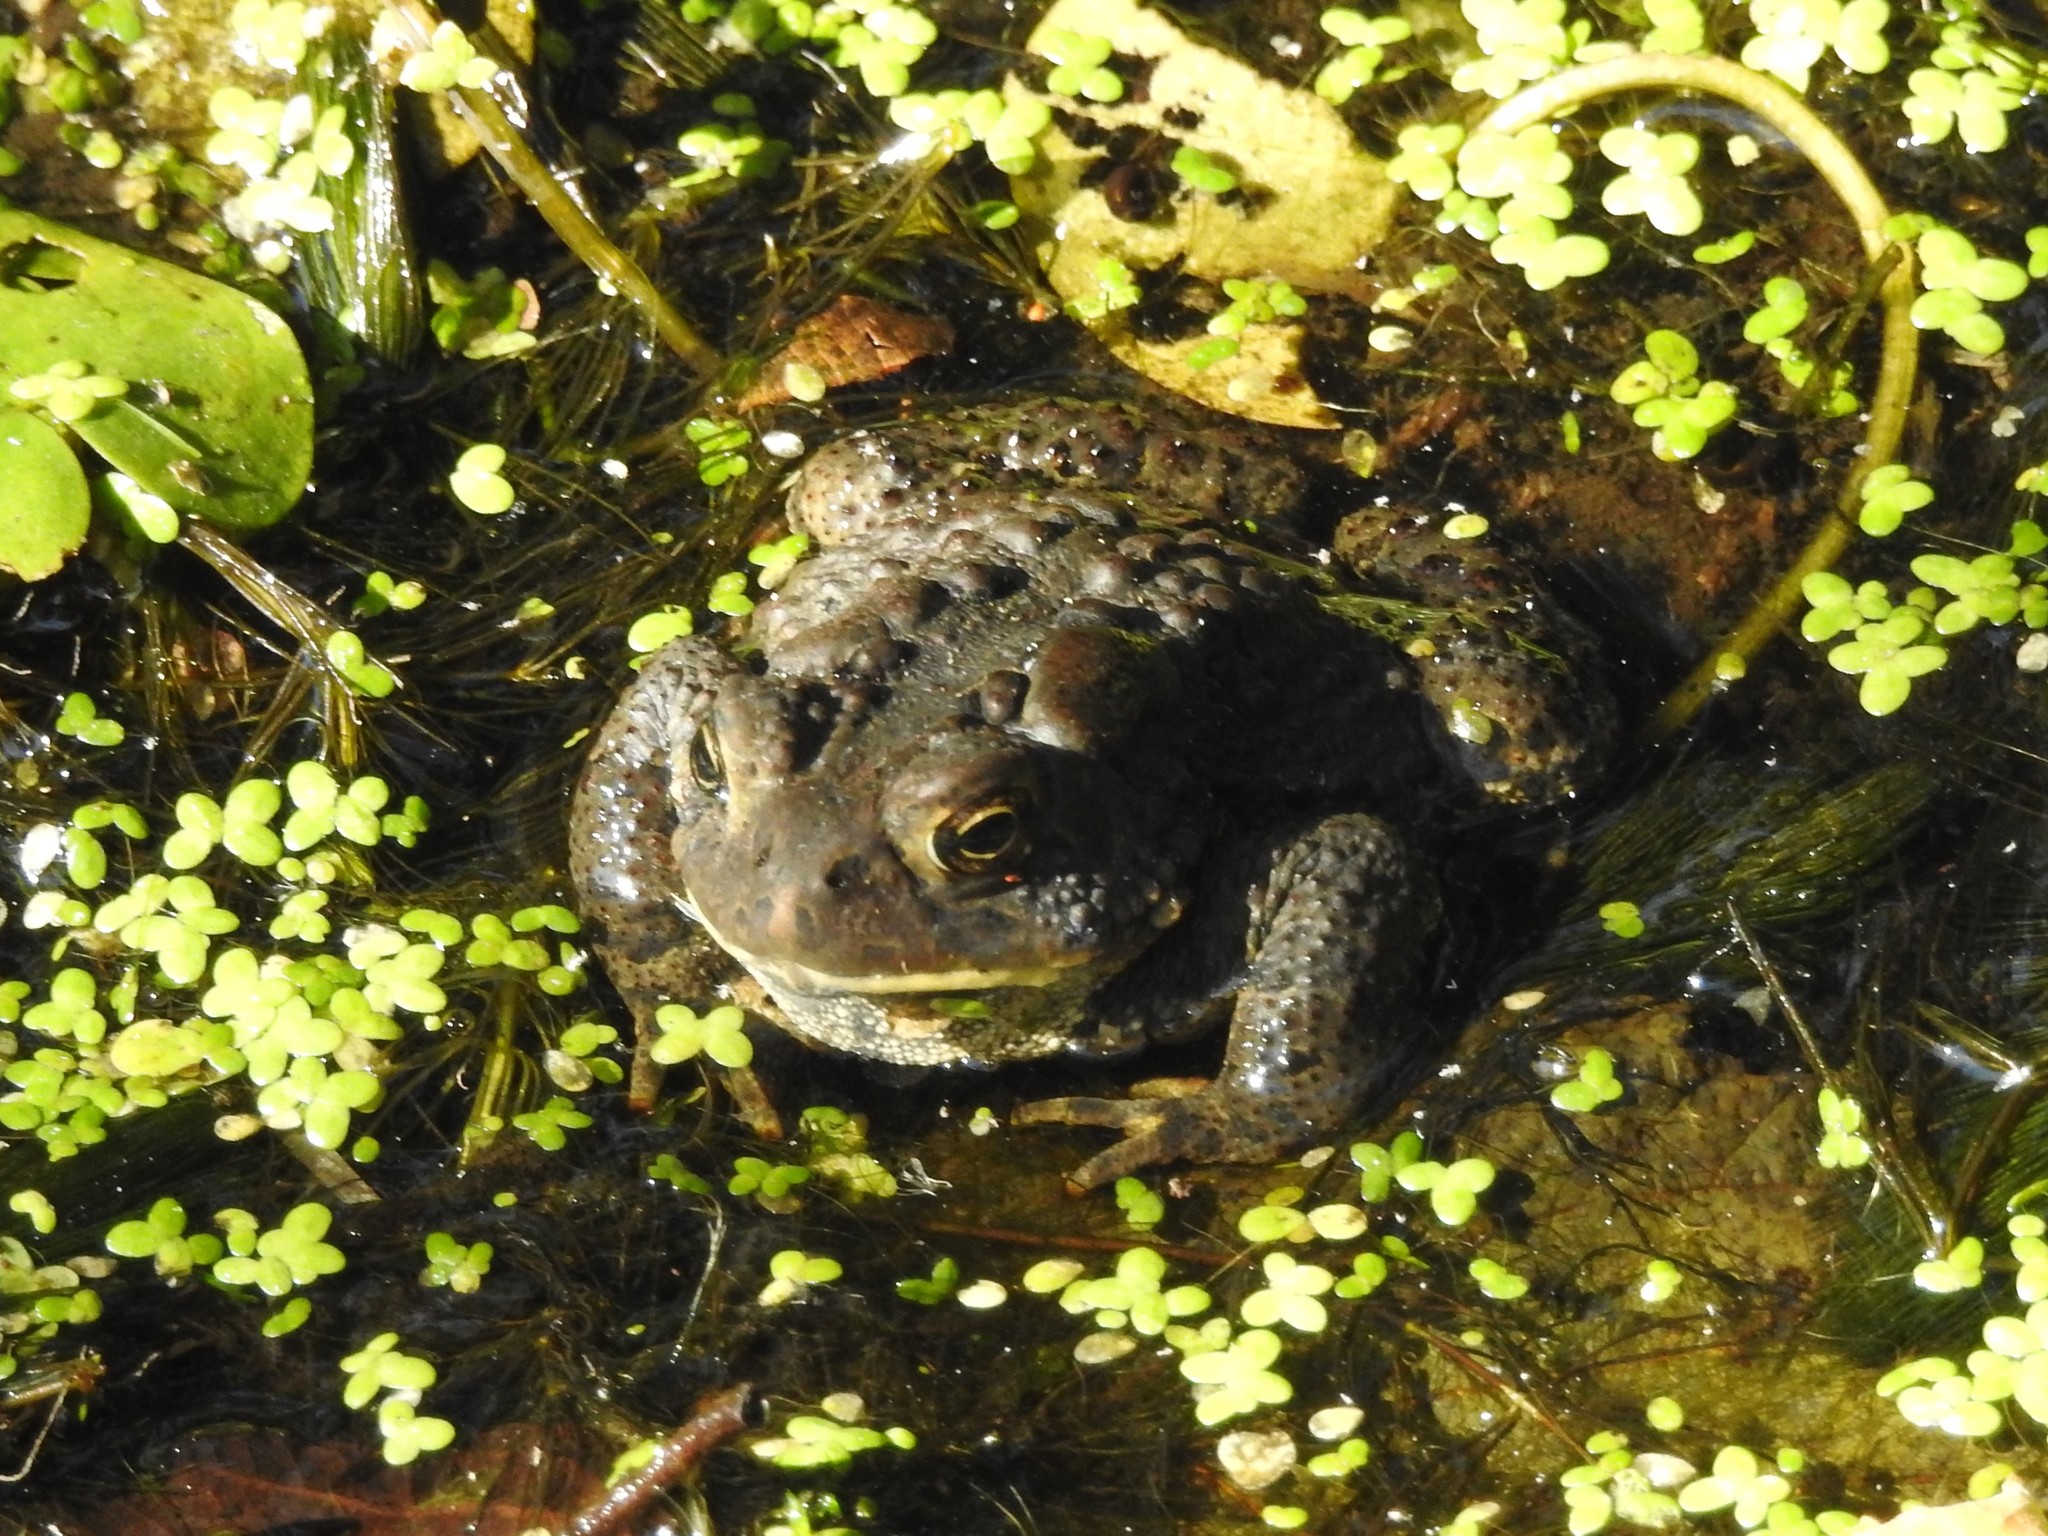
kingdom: Animalia
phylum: Chordata
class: Amphibia
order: Anura
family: Bufonidae
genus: Anaxyrus
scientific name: Anaxyrus americanus
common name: American toad
